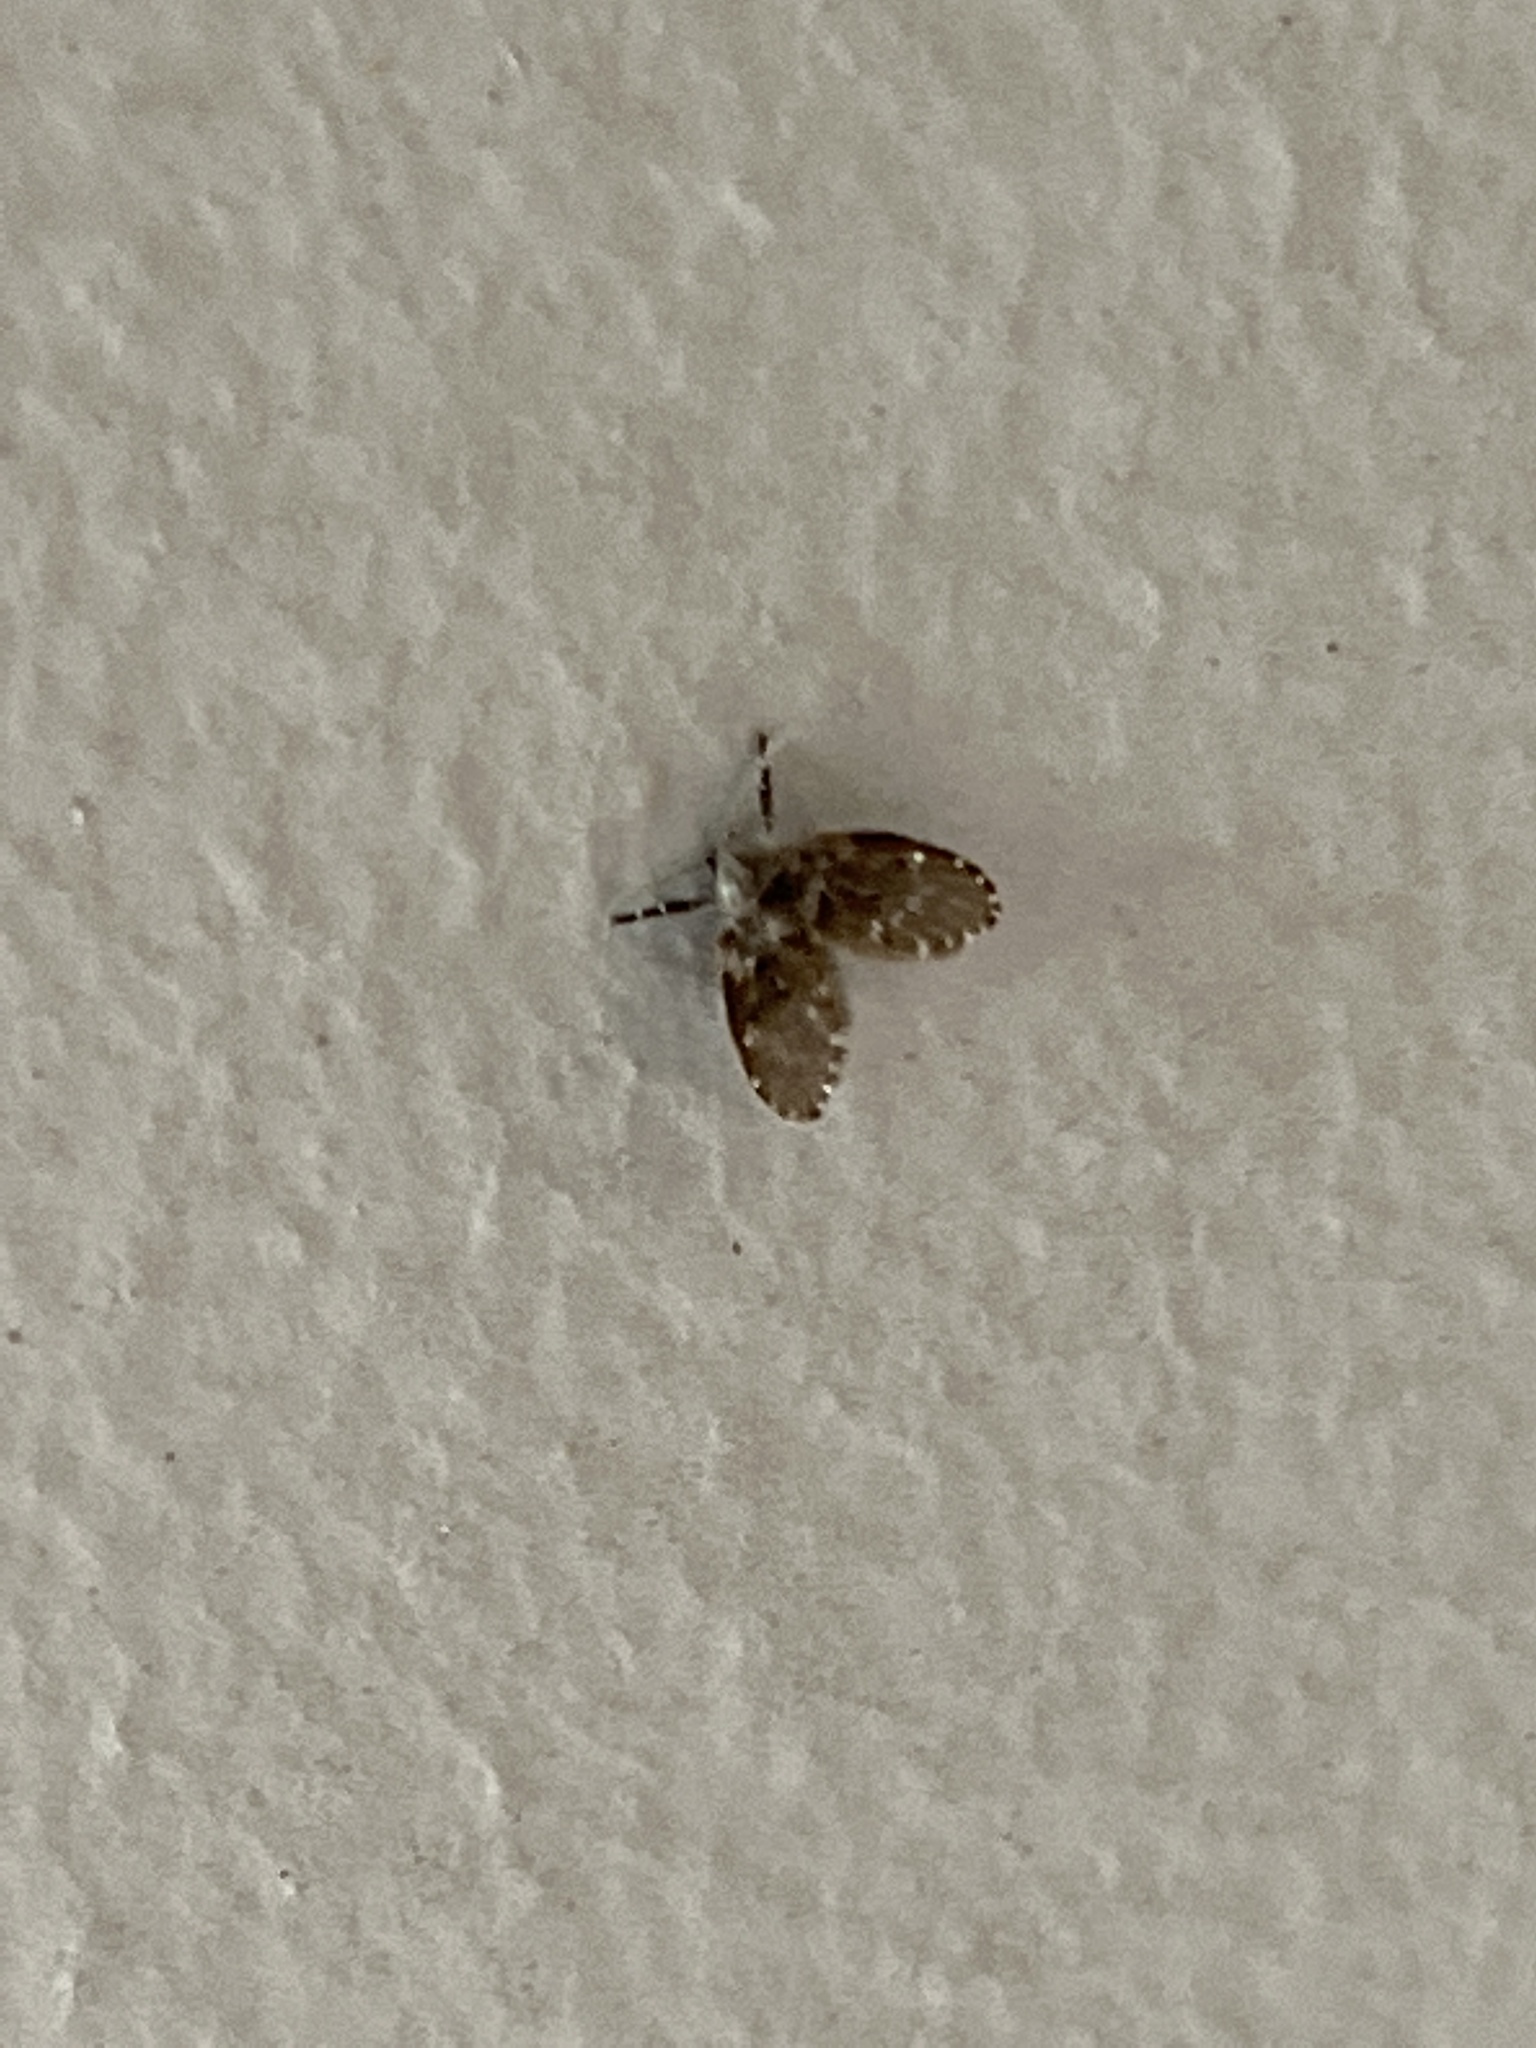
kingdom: Animalia
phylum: Arthropoda
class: Insecta
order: Diptera
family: Psychodidae
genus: Clogmia
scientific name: Clogmia albipunctatus
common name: White-spotted moth fly
